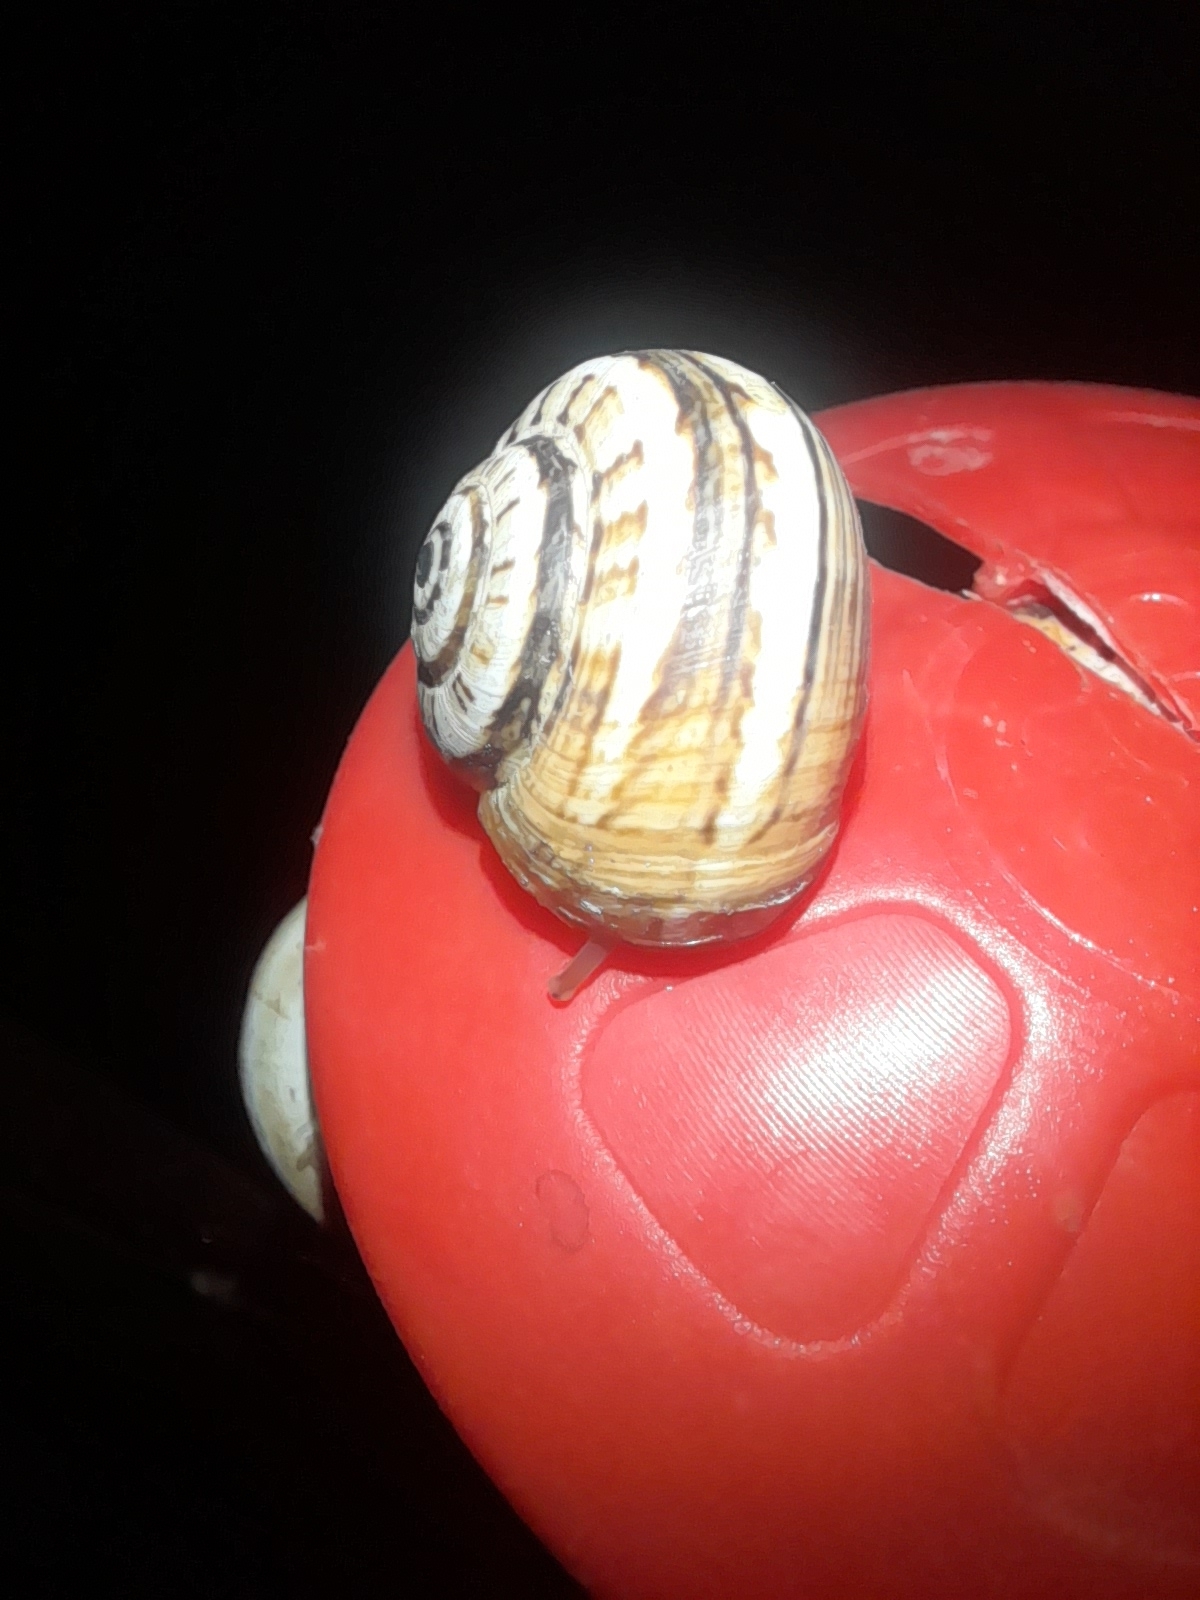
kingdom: Animalia
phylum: Mollusca
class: Gastropoda
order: Stylommatophora
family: Helicidae
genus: Theba
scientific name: Theba pisana
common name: White snail
